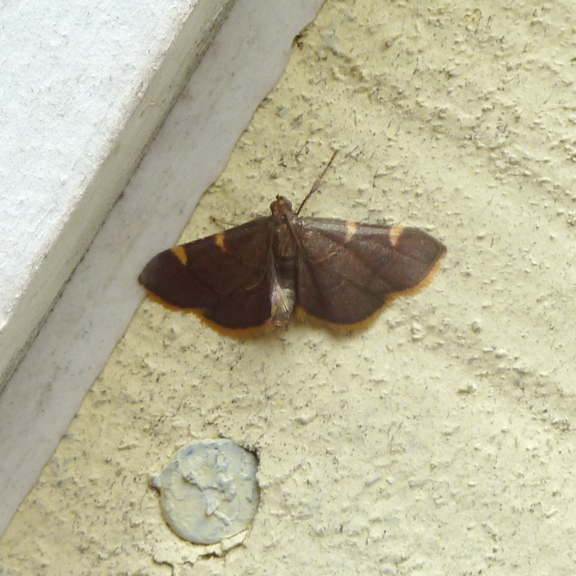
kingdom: Animalia
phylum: Arthropoda
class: Insecta
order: Lepidoptera
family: Pyralidae
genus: Hypsopygia
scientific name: Hypsopygia olinalis
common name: Yellow-fringed dolichomia moth
